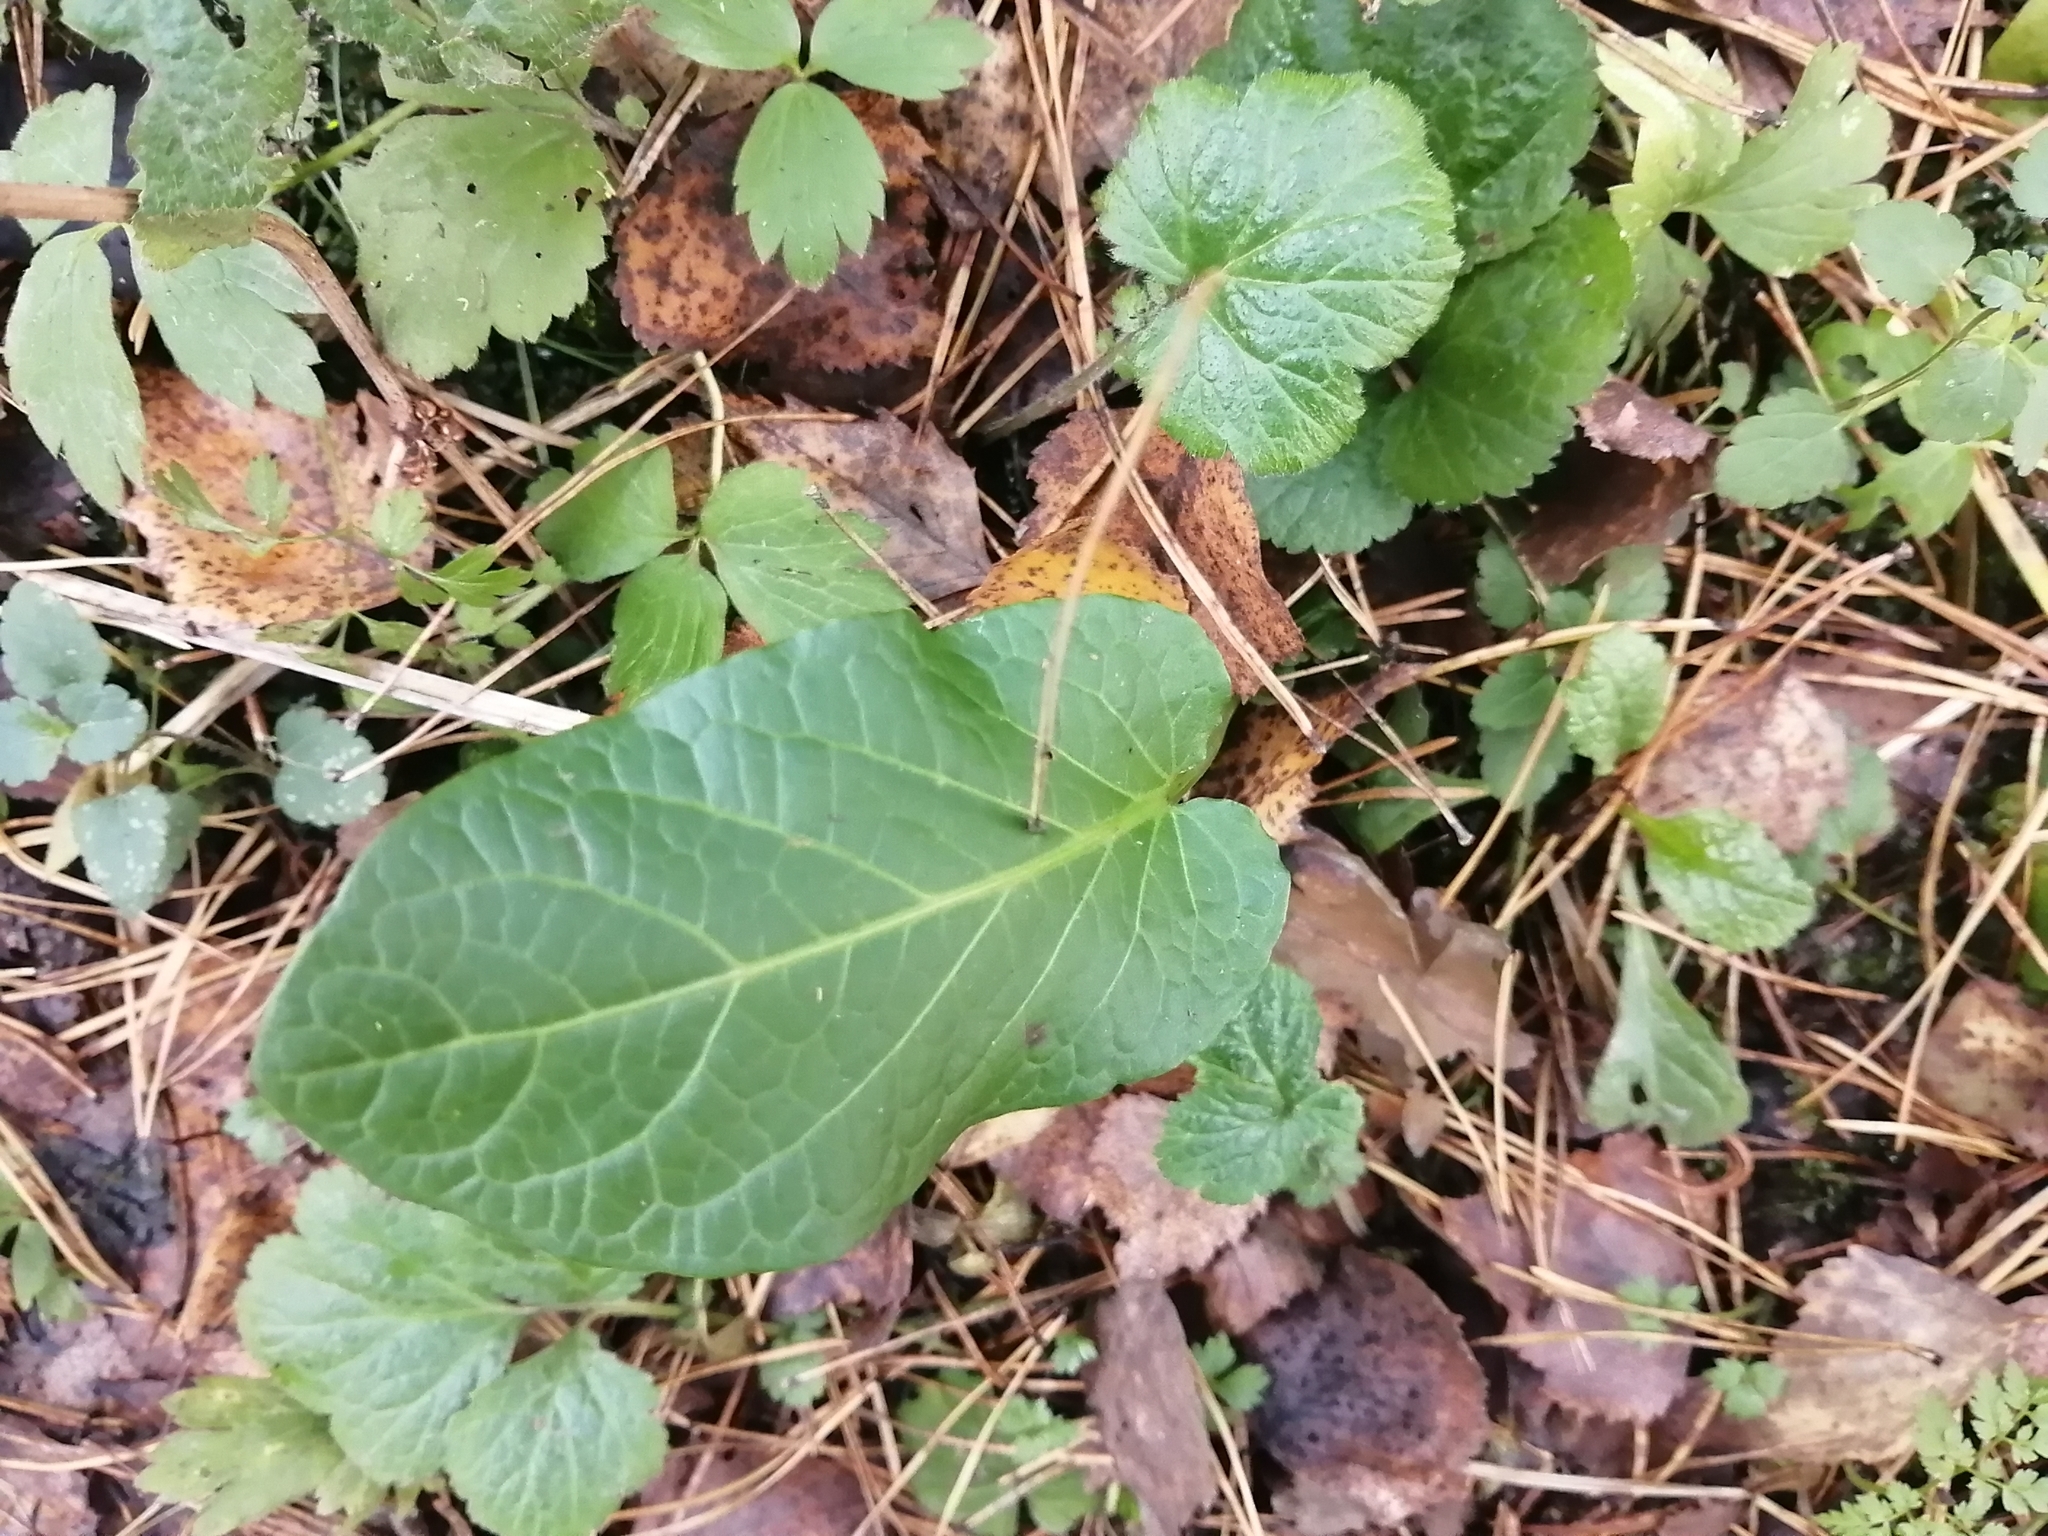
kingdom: Plantae
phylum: Tracheophyta
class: Magnoliopsida
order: Caryophyllales
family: Polygonaceae
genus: Rumex
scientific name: Rumex obtusifolius
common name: Bitter dock
